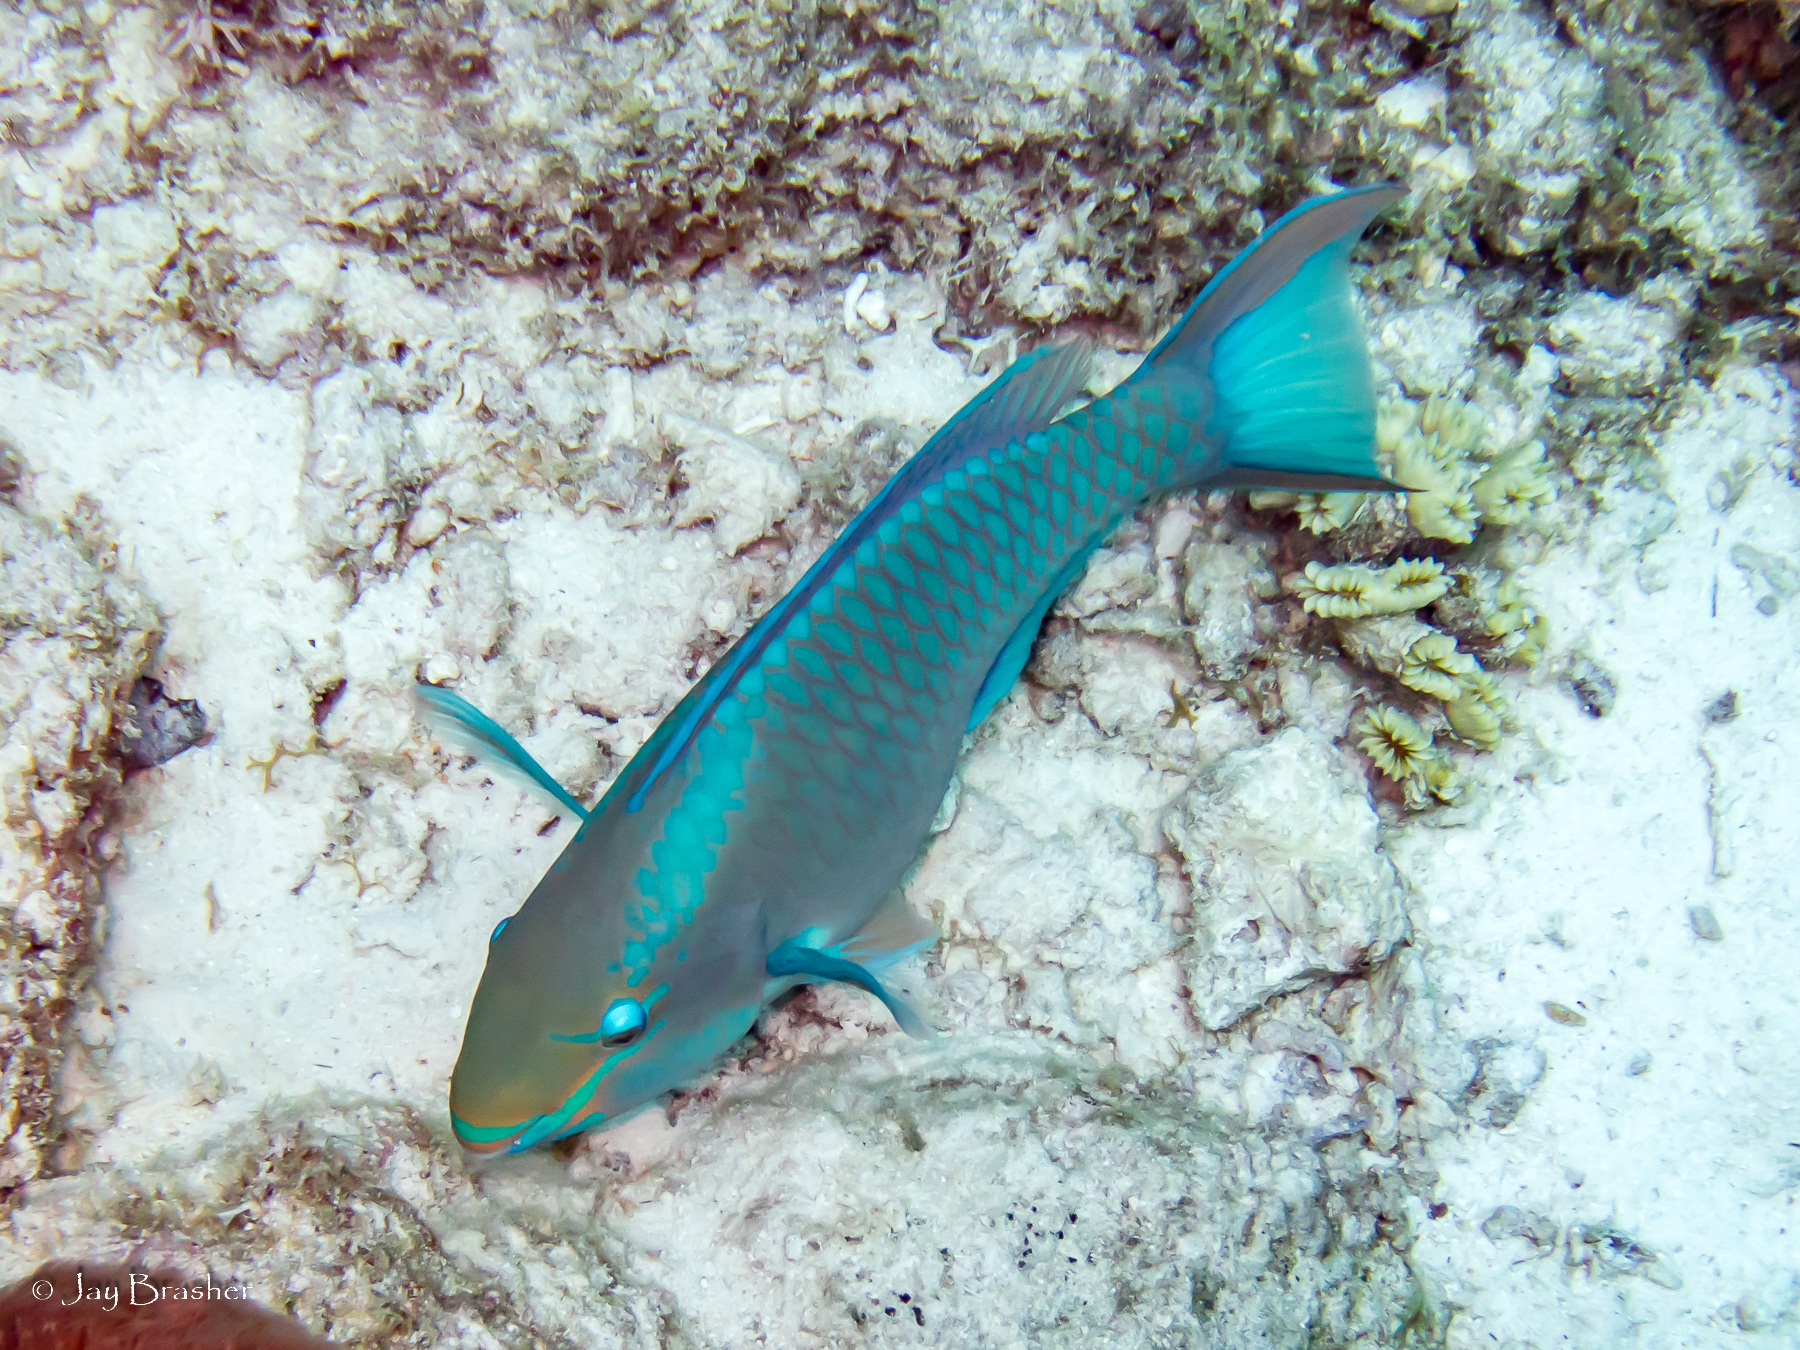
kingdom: Animalia
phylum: Chordata
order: Perciformes
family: Scaridae
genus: Scarus
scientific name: Scarus vetula
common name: Queen parrotfish
